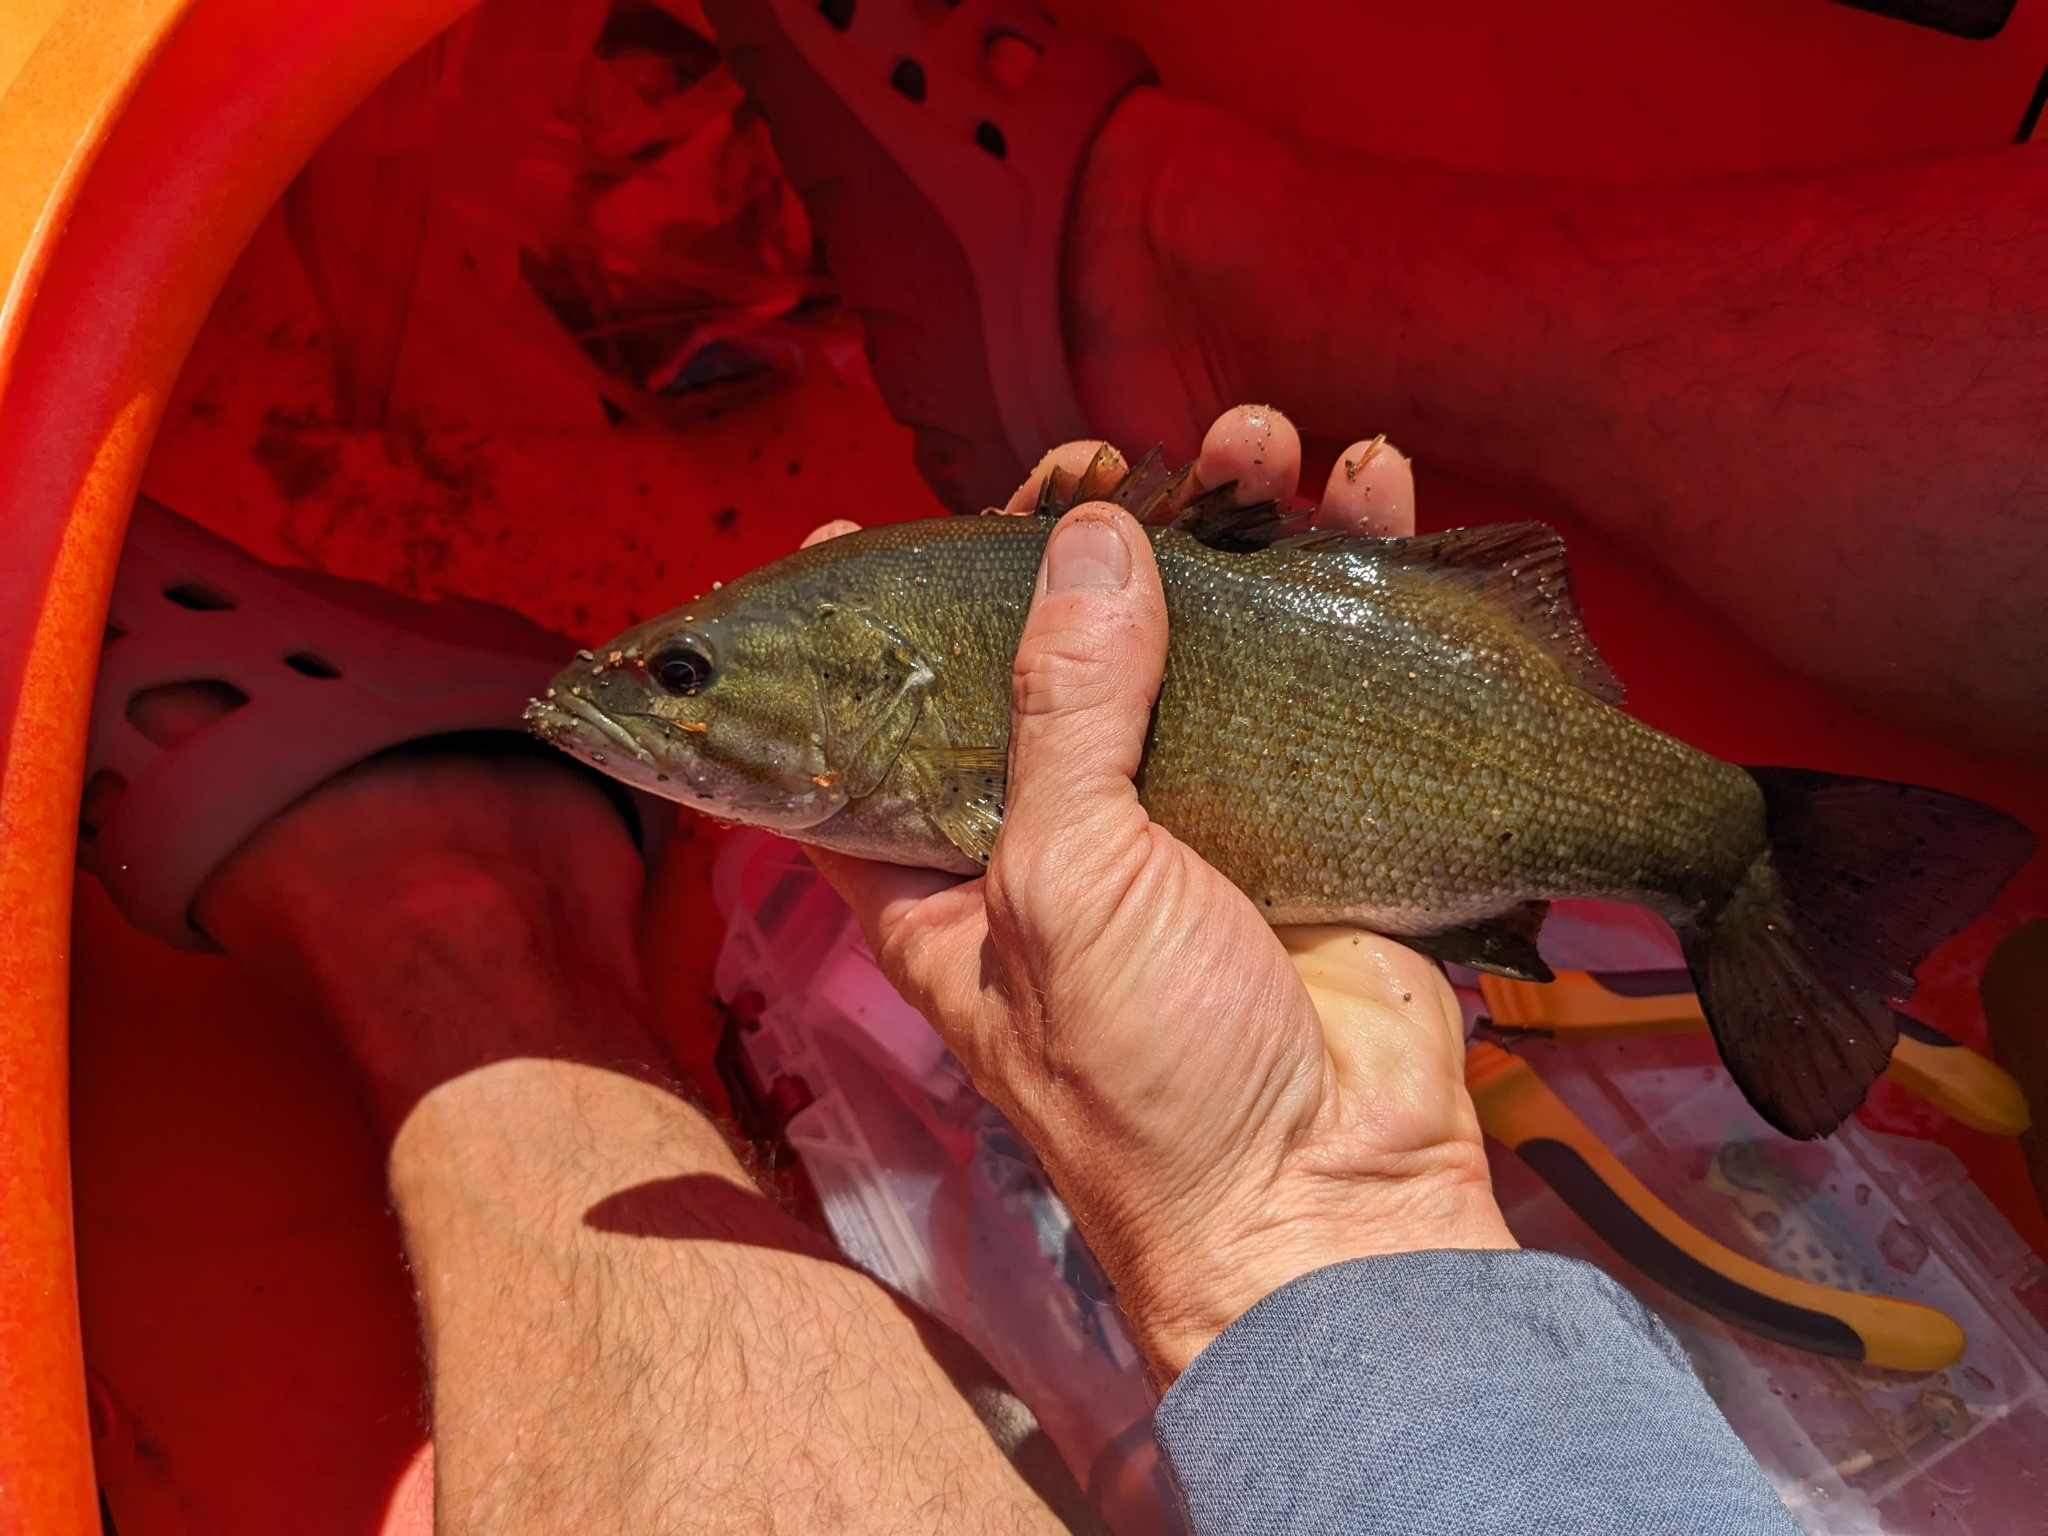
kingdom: Animalia
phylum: Chordata
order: Perciformes
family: Centrarchidae
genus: Micropterus
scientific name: Micropterus dolomieu
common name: Smallmouth bass
